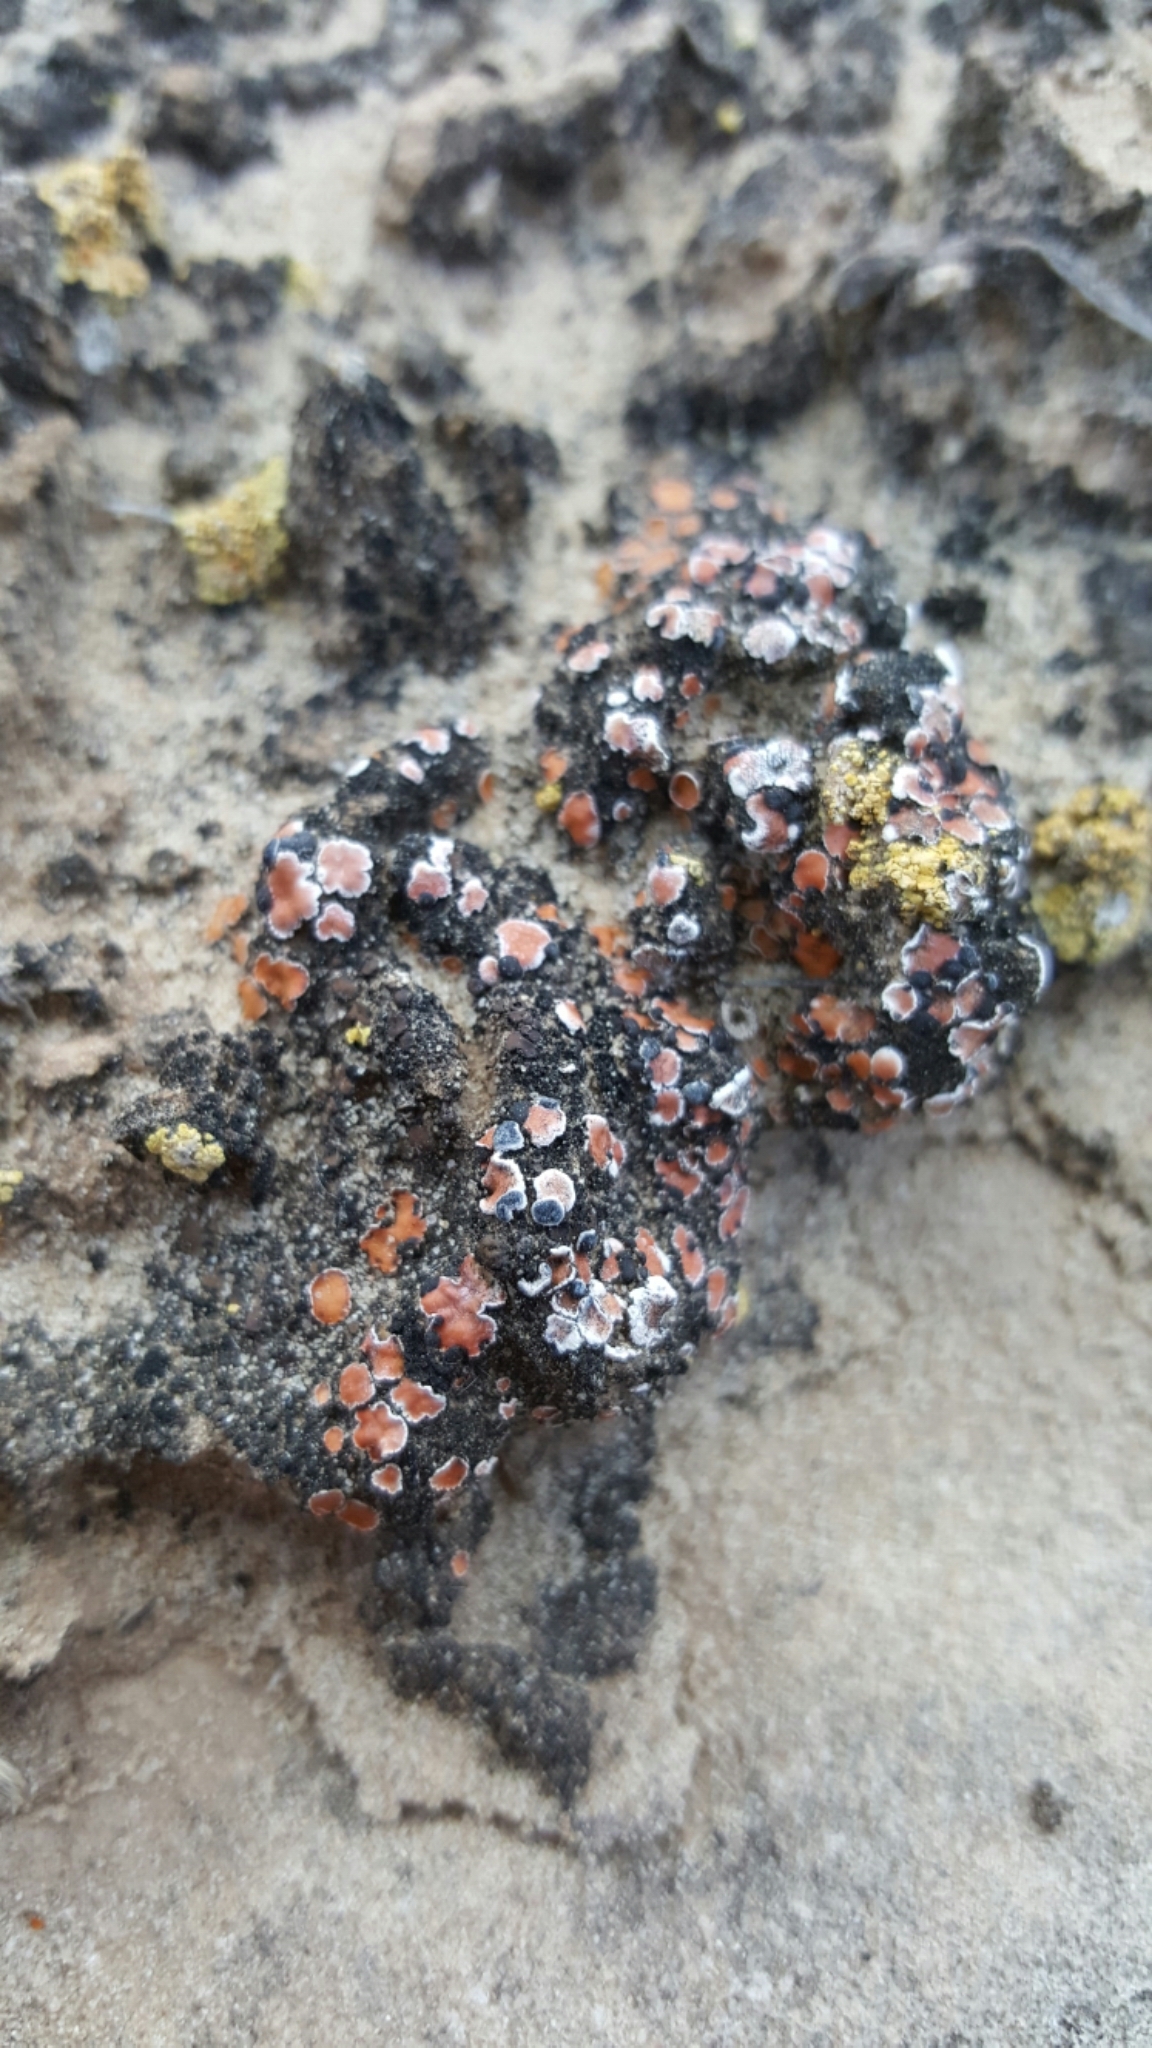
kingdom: Fungi
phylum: Ascomycota
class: Lecanoromycetes
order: Lecanorales
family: Psoraceae
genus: Psora
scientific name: Psora decipiens
